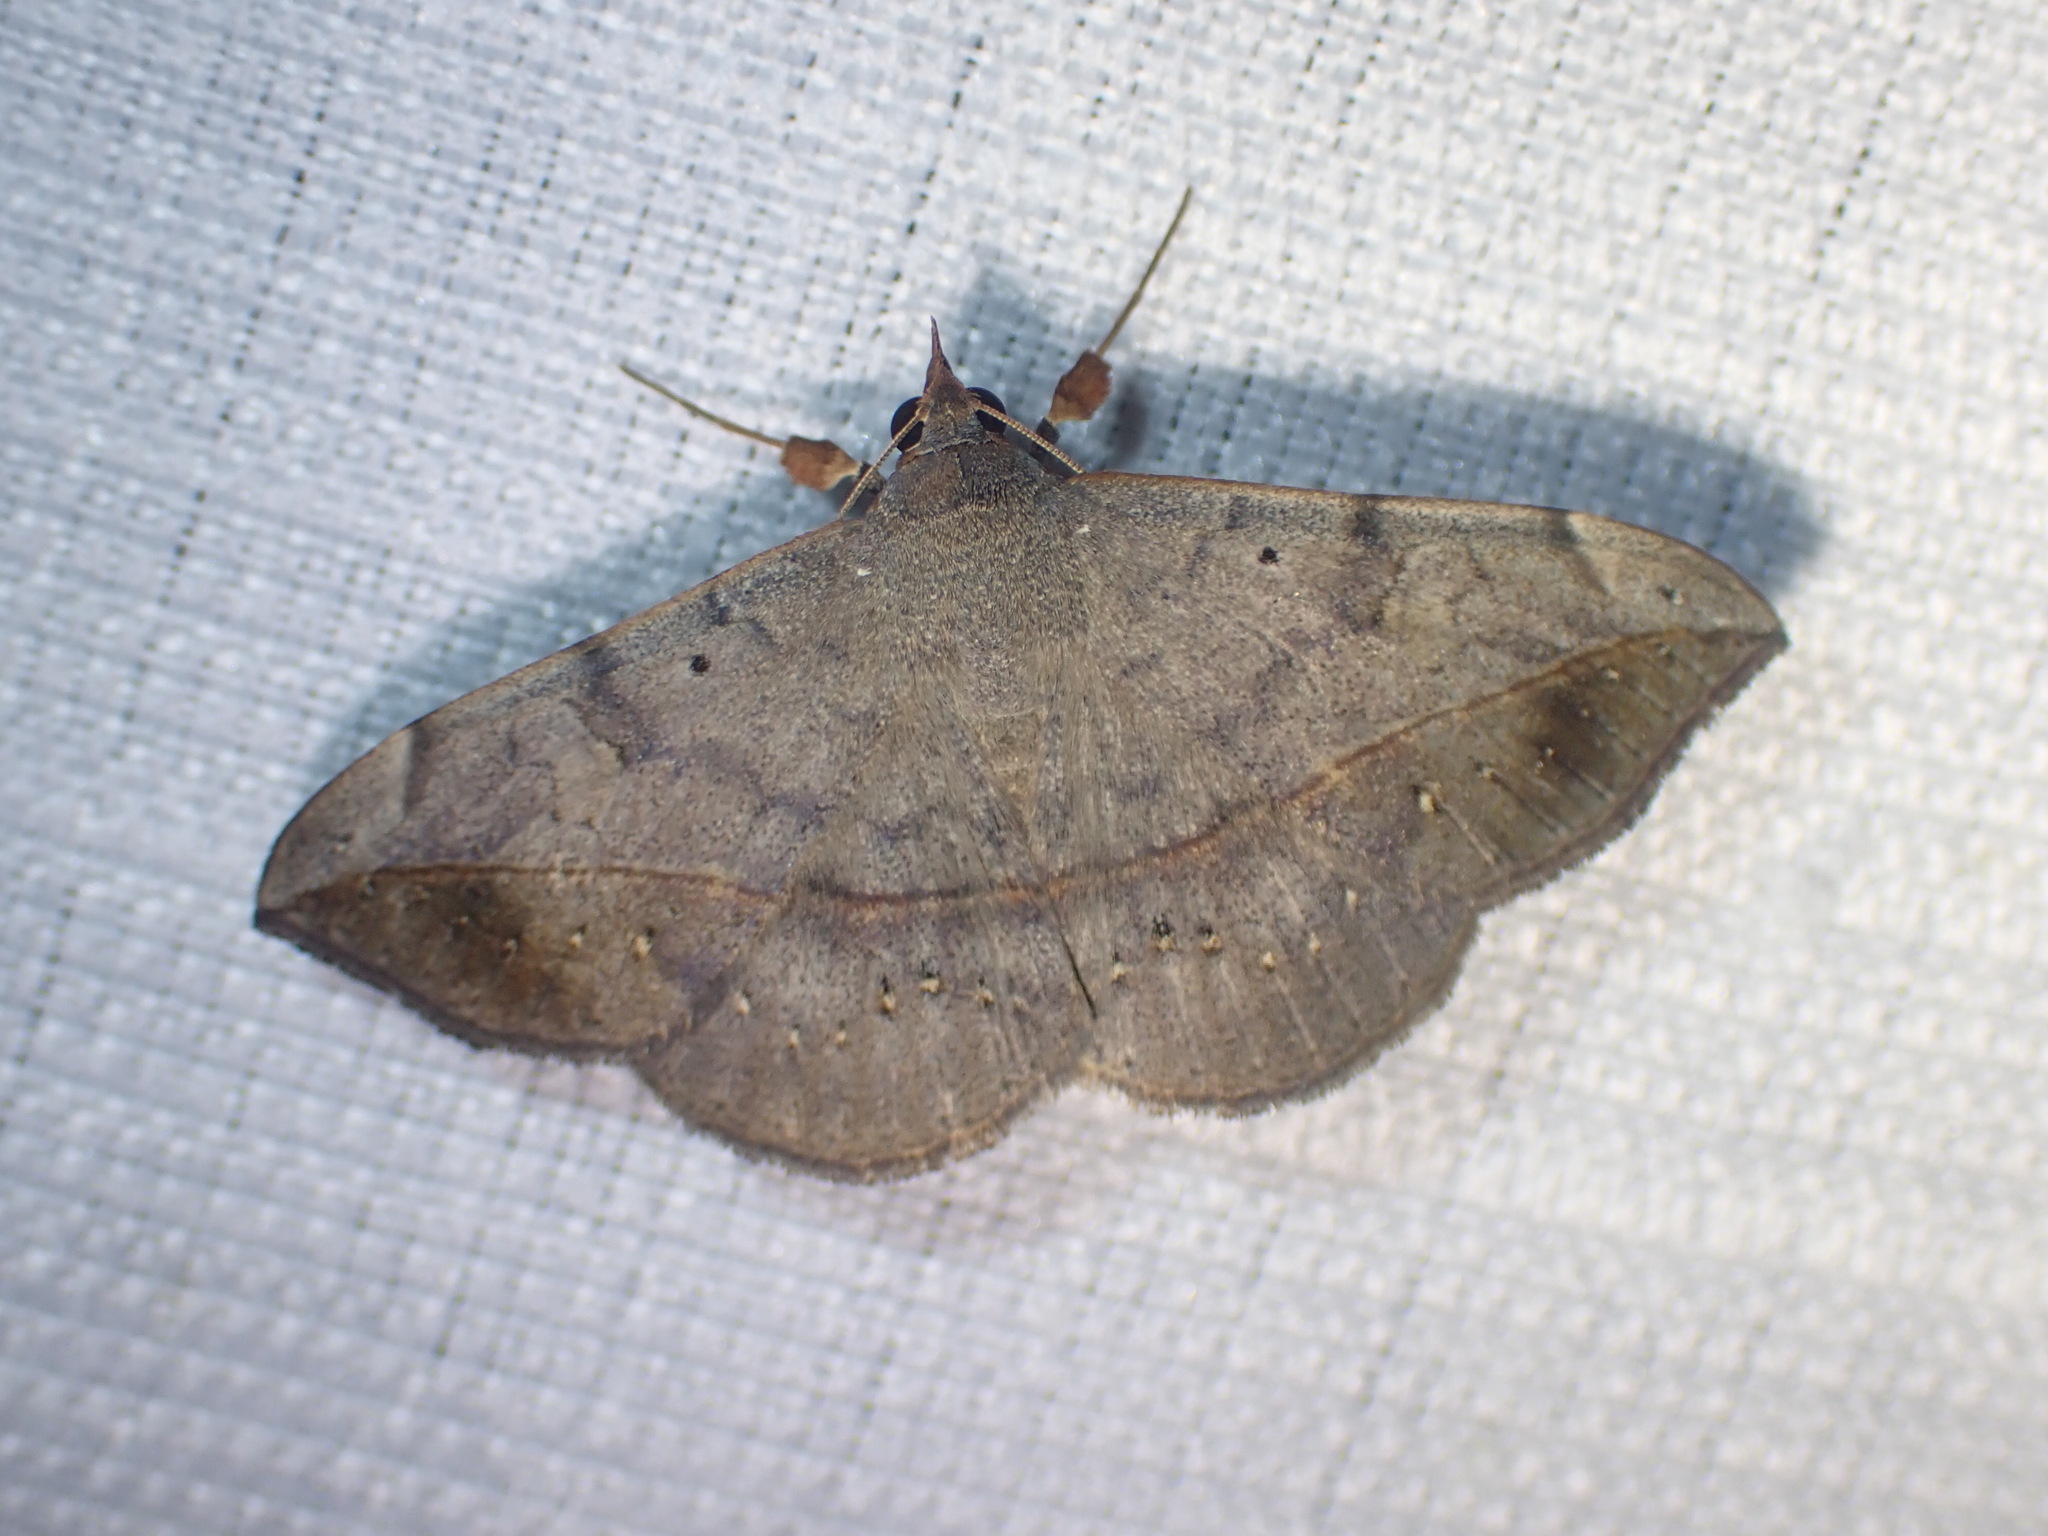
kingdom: Animalia
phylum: Arthropoda
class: Insecta
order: Lepidoptera
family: Erebidae
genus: Anticarsia
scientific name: Anticarsia gemmatalis
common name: Cutworm moth
